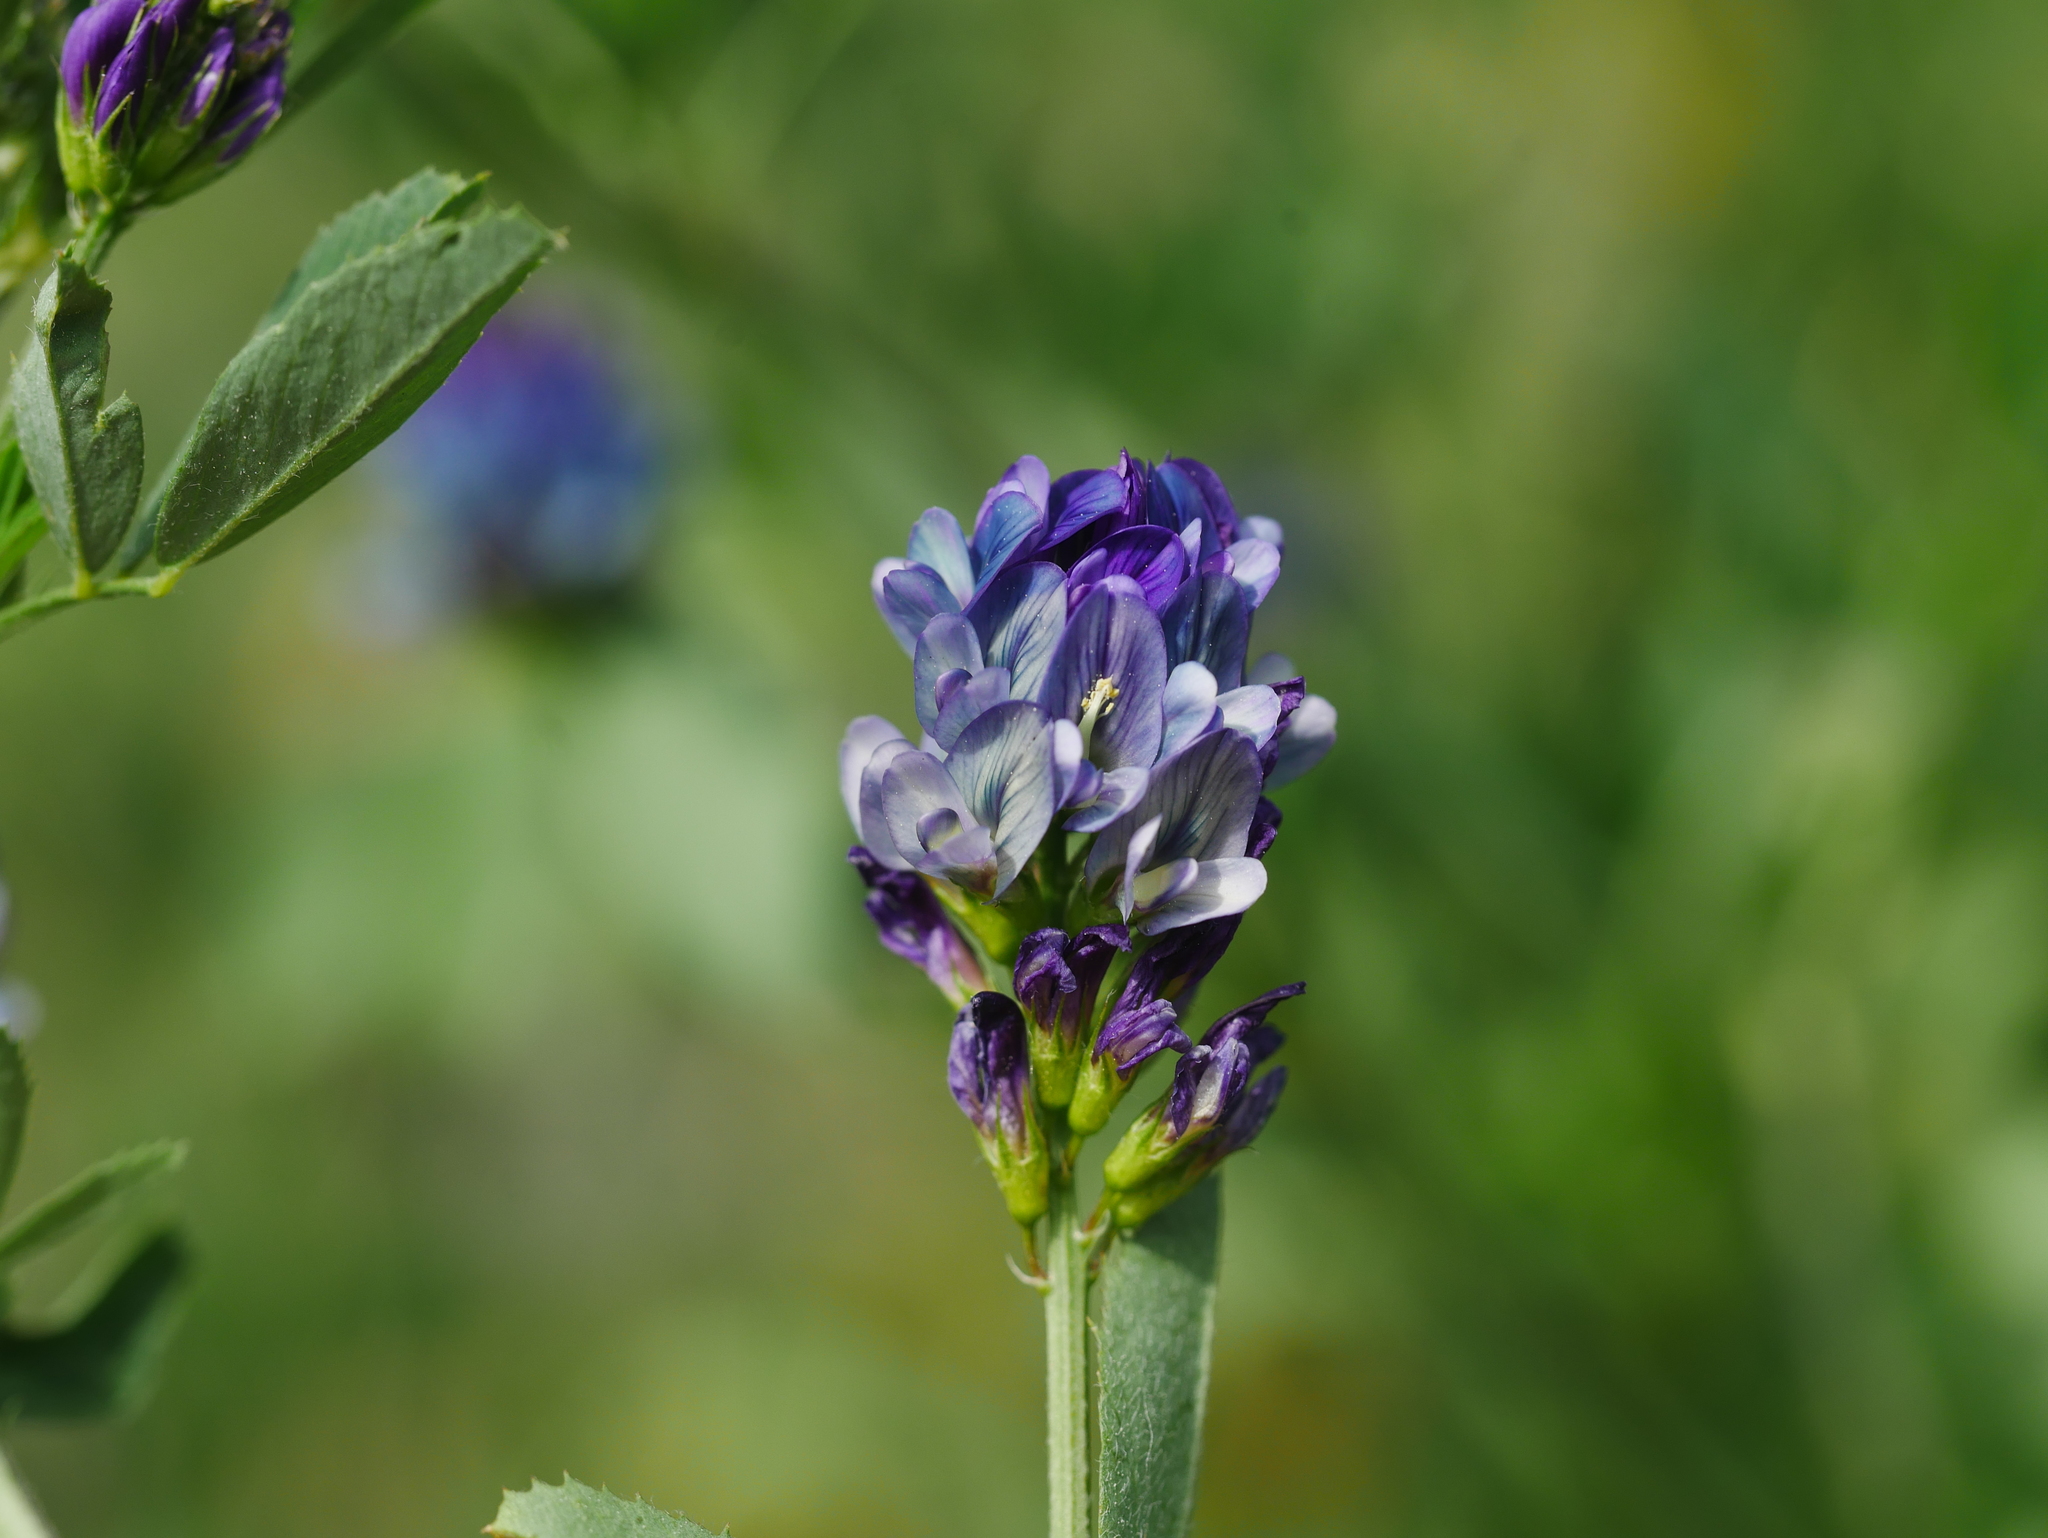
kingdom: Plantae
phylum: Tracheophyta
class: Magnoliopsida
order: Fabales
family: Fabaceae
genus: Medicago
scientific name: Medicago varia
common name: Sand lucerne
